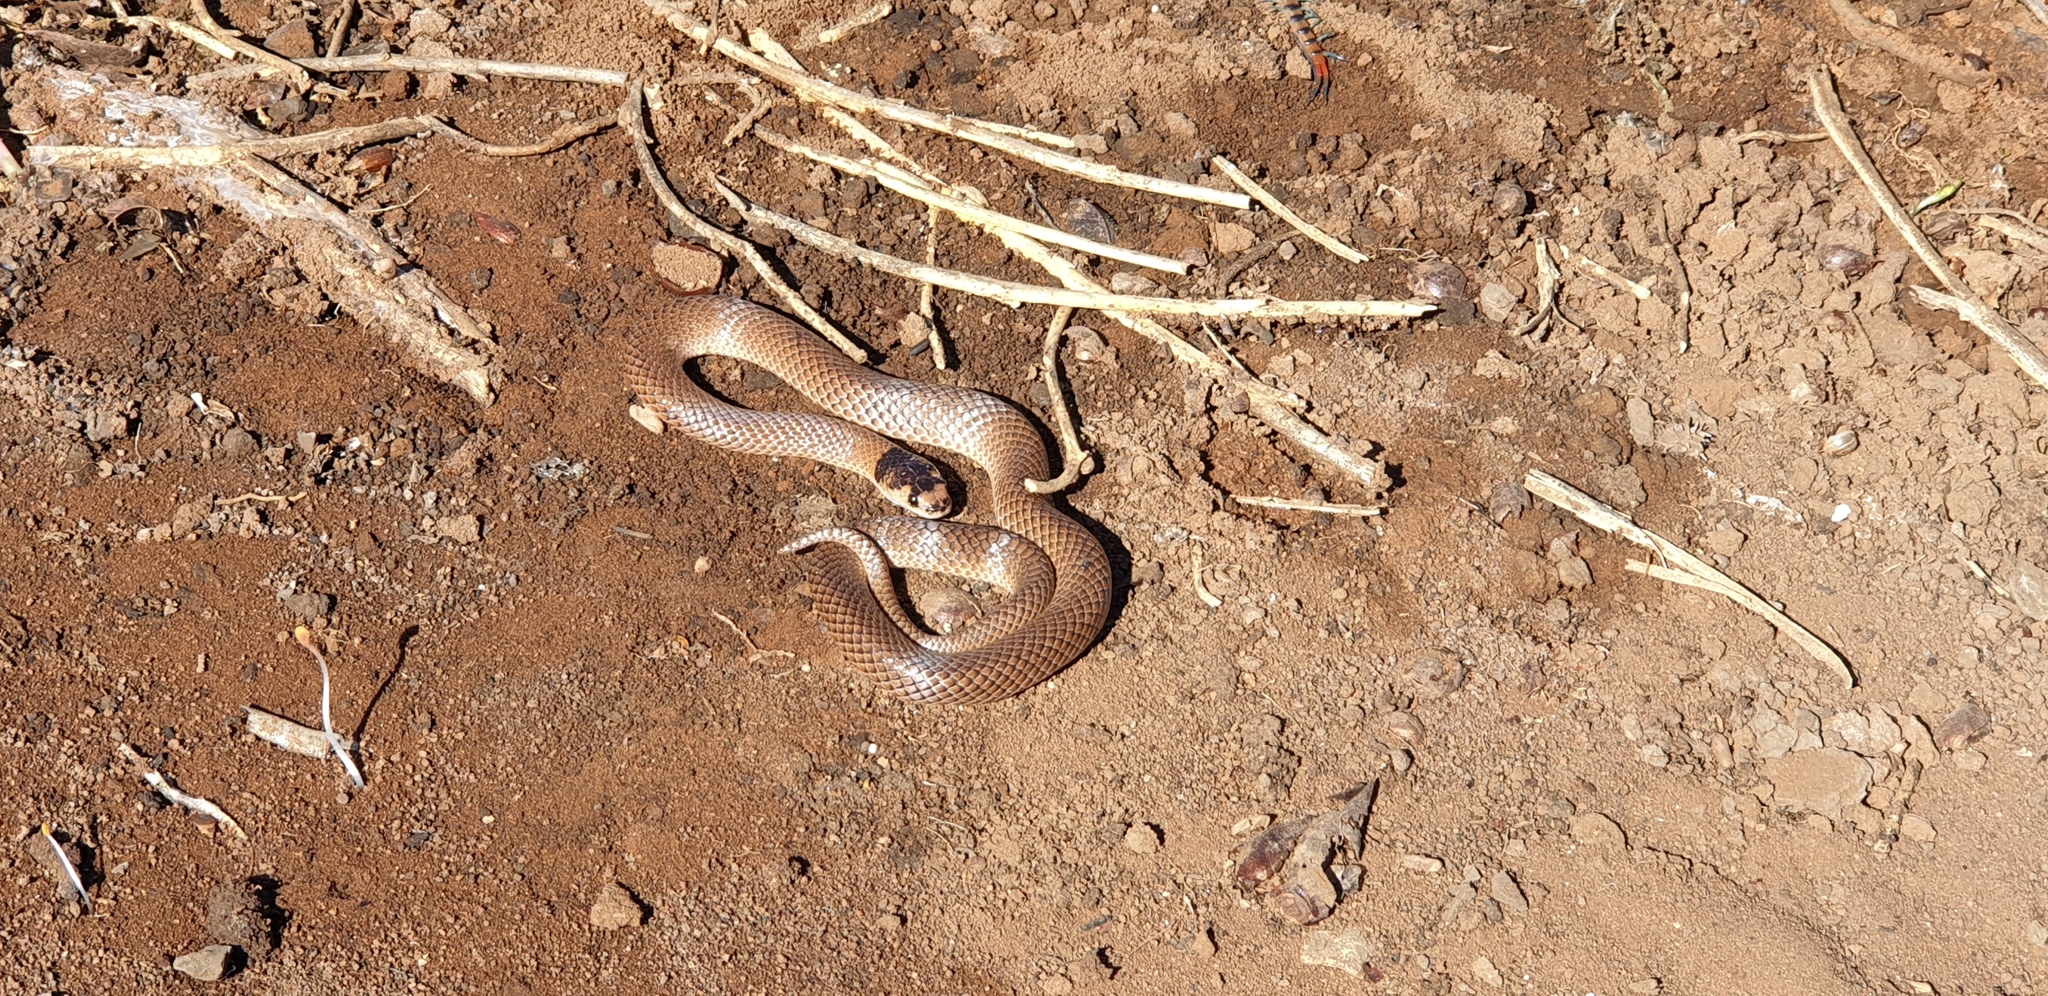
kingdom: Animalia
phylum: Chordata
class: Squamata
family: Elapidae
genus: Suta
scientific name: Suta spectabilis
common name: Bush’s hooded snake
